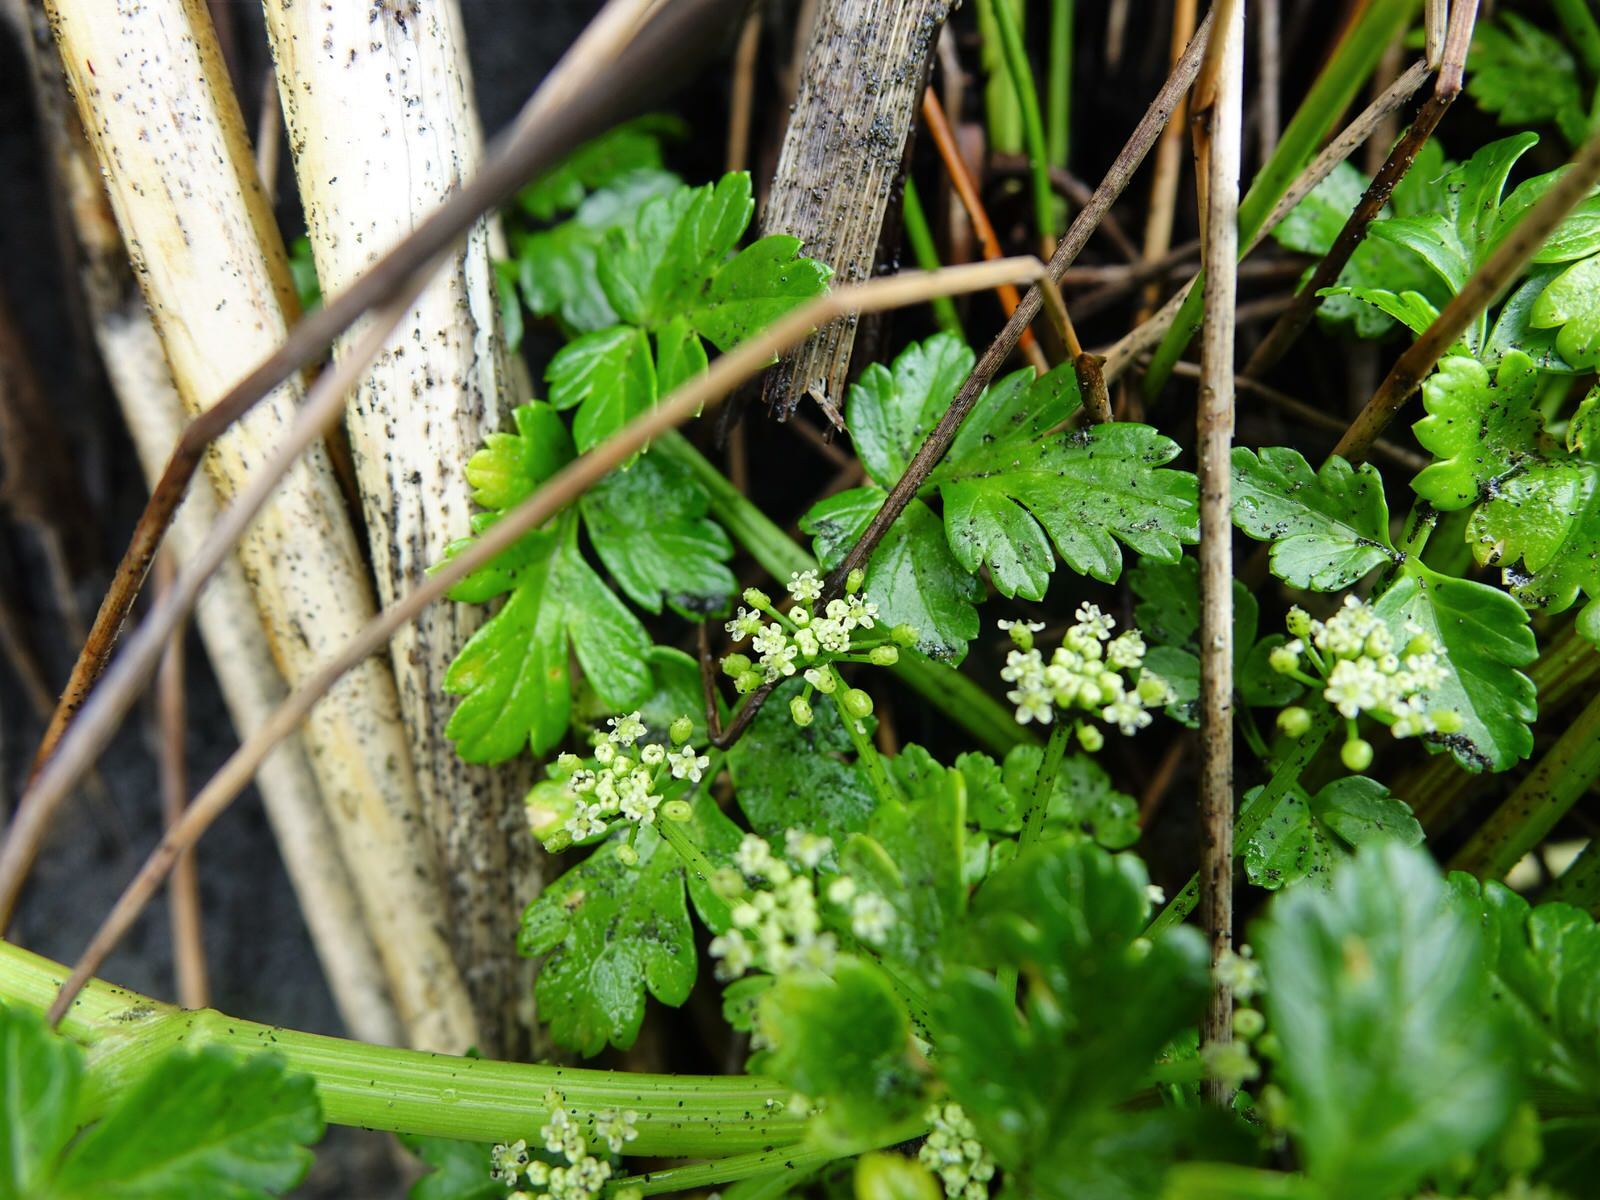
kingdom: Plantae
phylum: Tracheophyta
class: Magnoliopsida
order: Apiales
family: Apiaceae
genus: Apium
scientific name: Apium prostratum
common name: Prostrate marshwort
